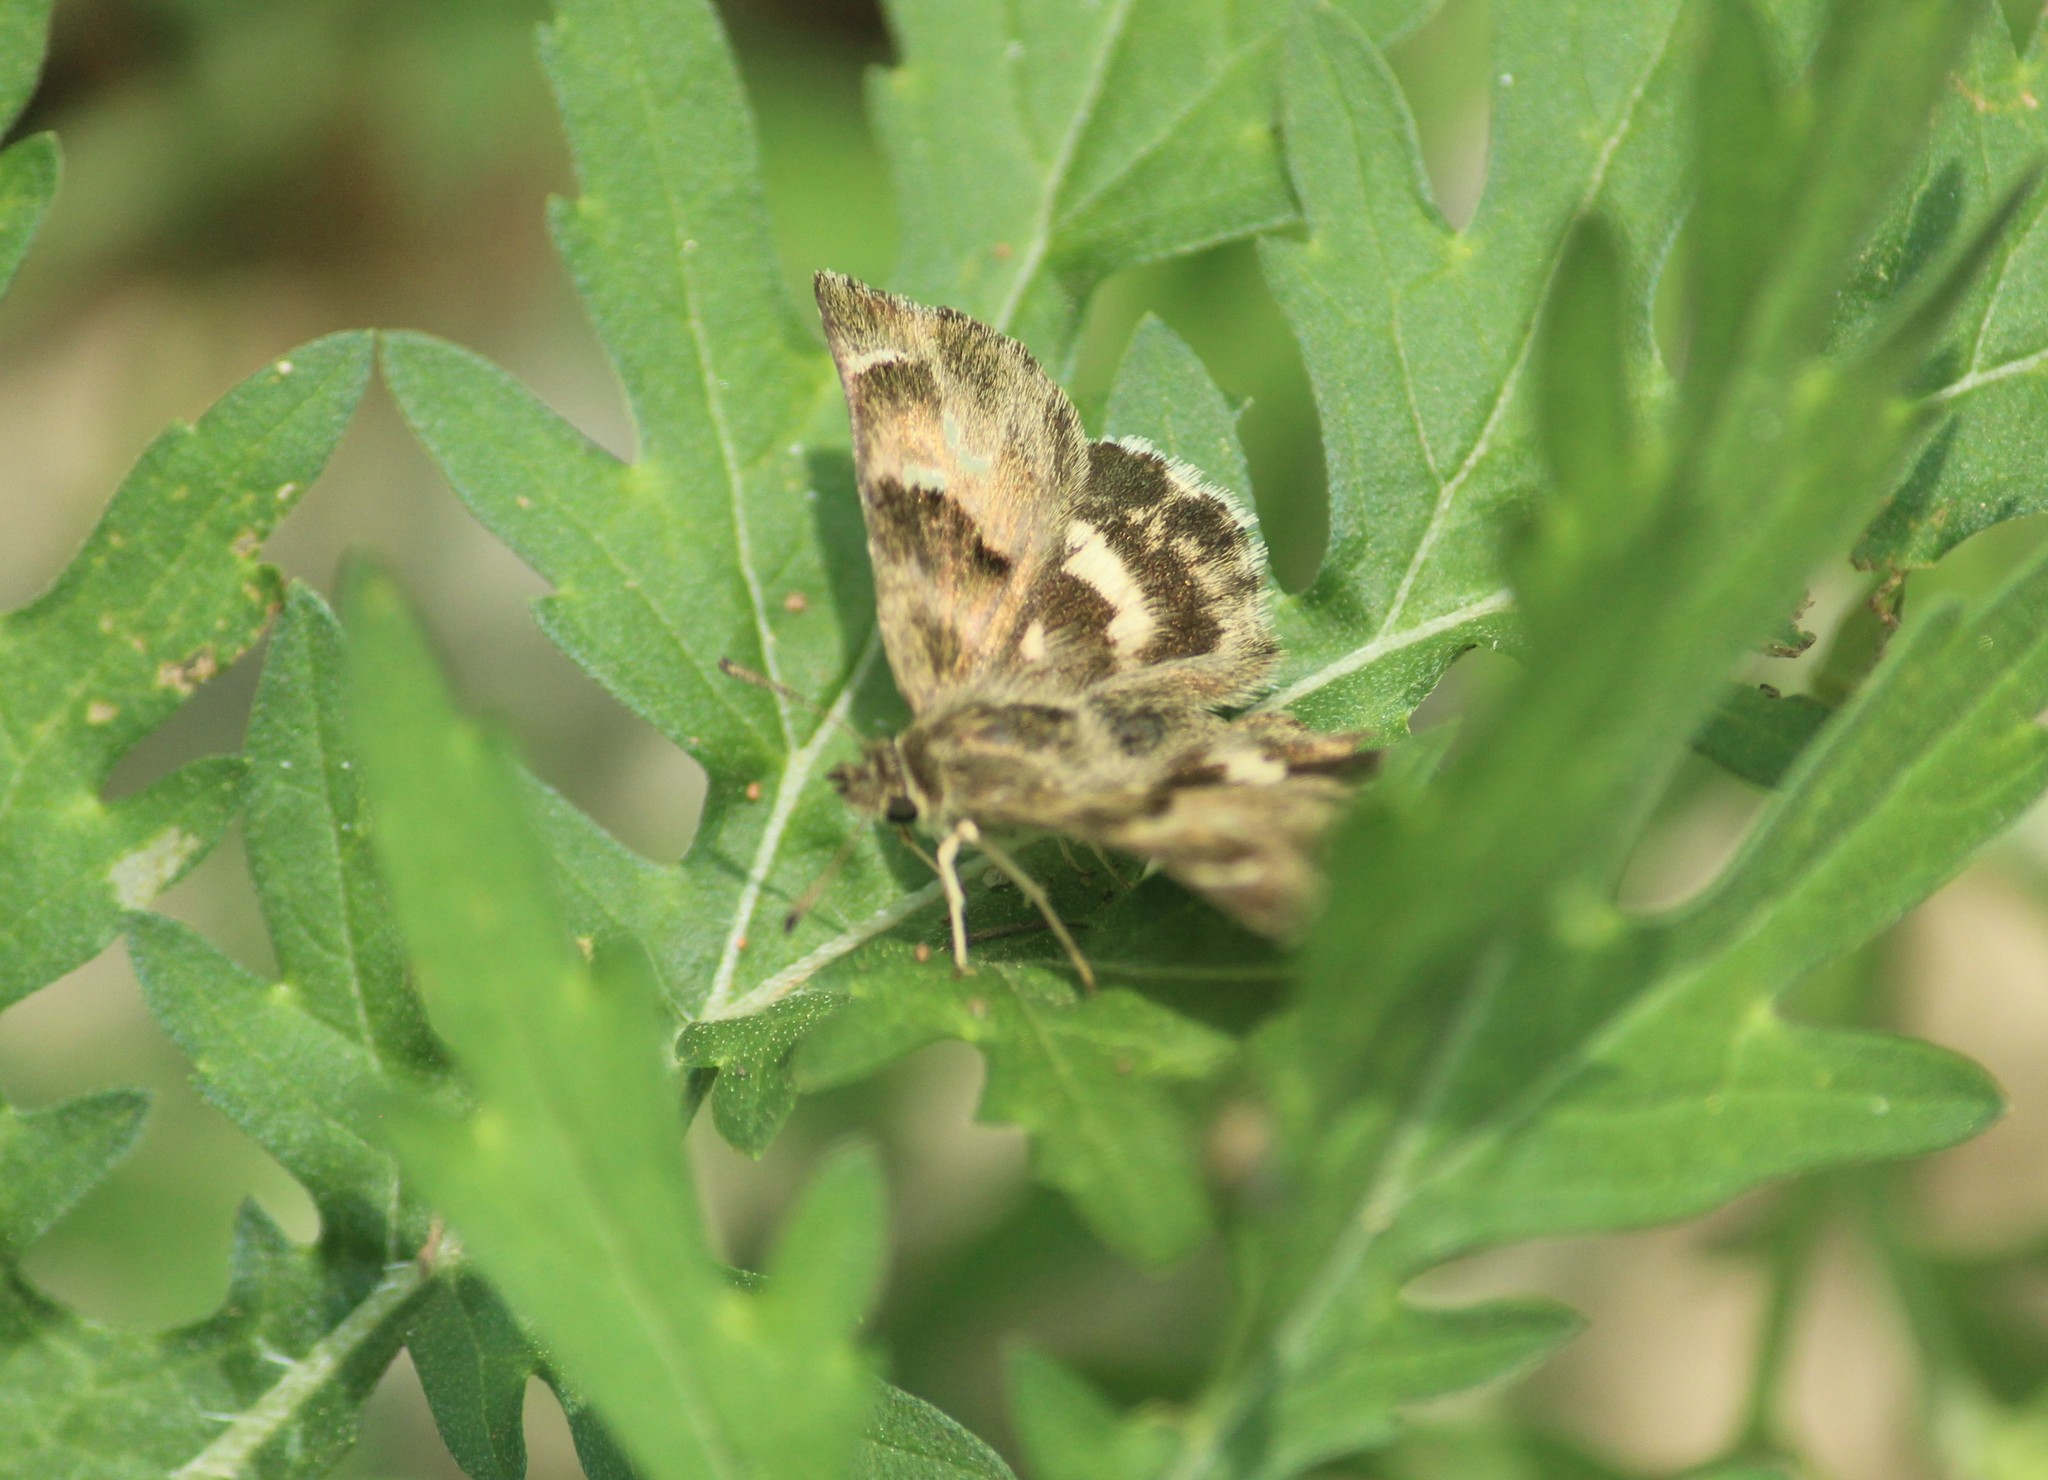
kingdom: Animalia
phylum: Arthropoda
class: Insecta
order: Lepidoptera
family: Hesperiidae
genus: Gomalia
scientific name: Gomalia elma
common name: Green-marbled skipper
